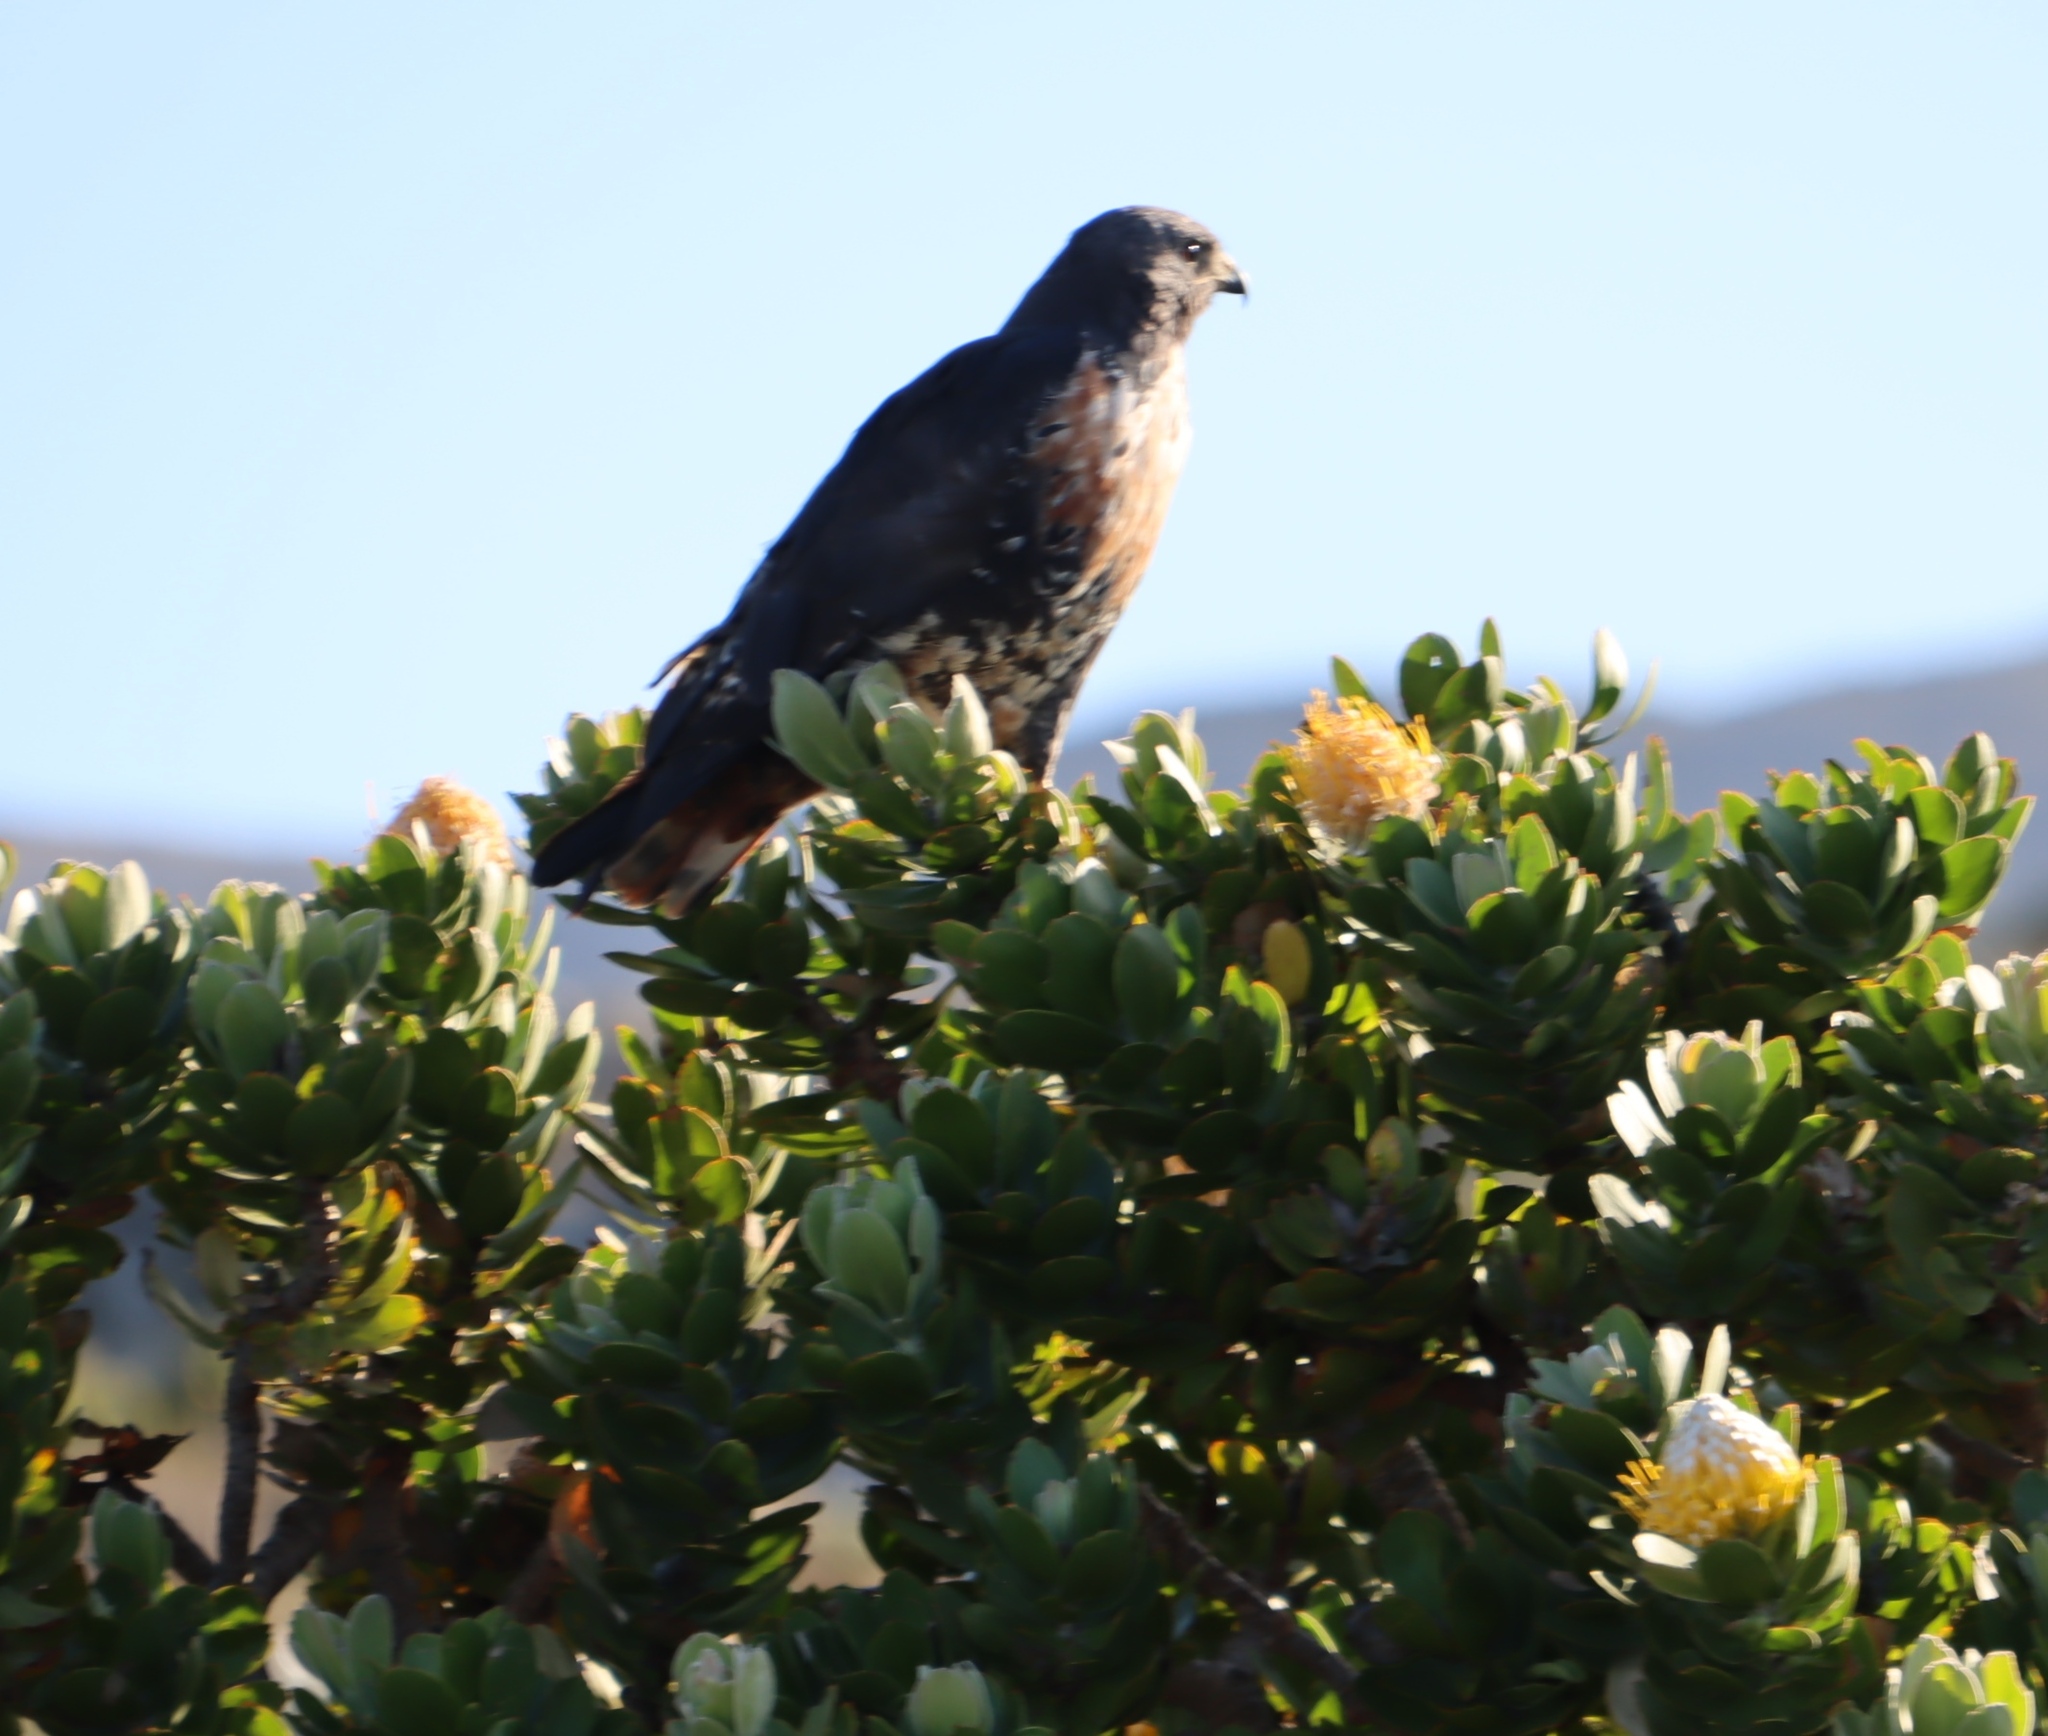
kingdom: Plantae
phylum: Tracheophyta
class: Magnoliopsida
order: Proteales
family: Proteaceae
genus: Leucospermum
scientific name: Leucospermum conocarpodendron
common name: Tree pincushion
